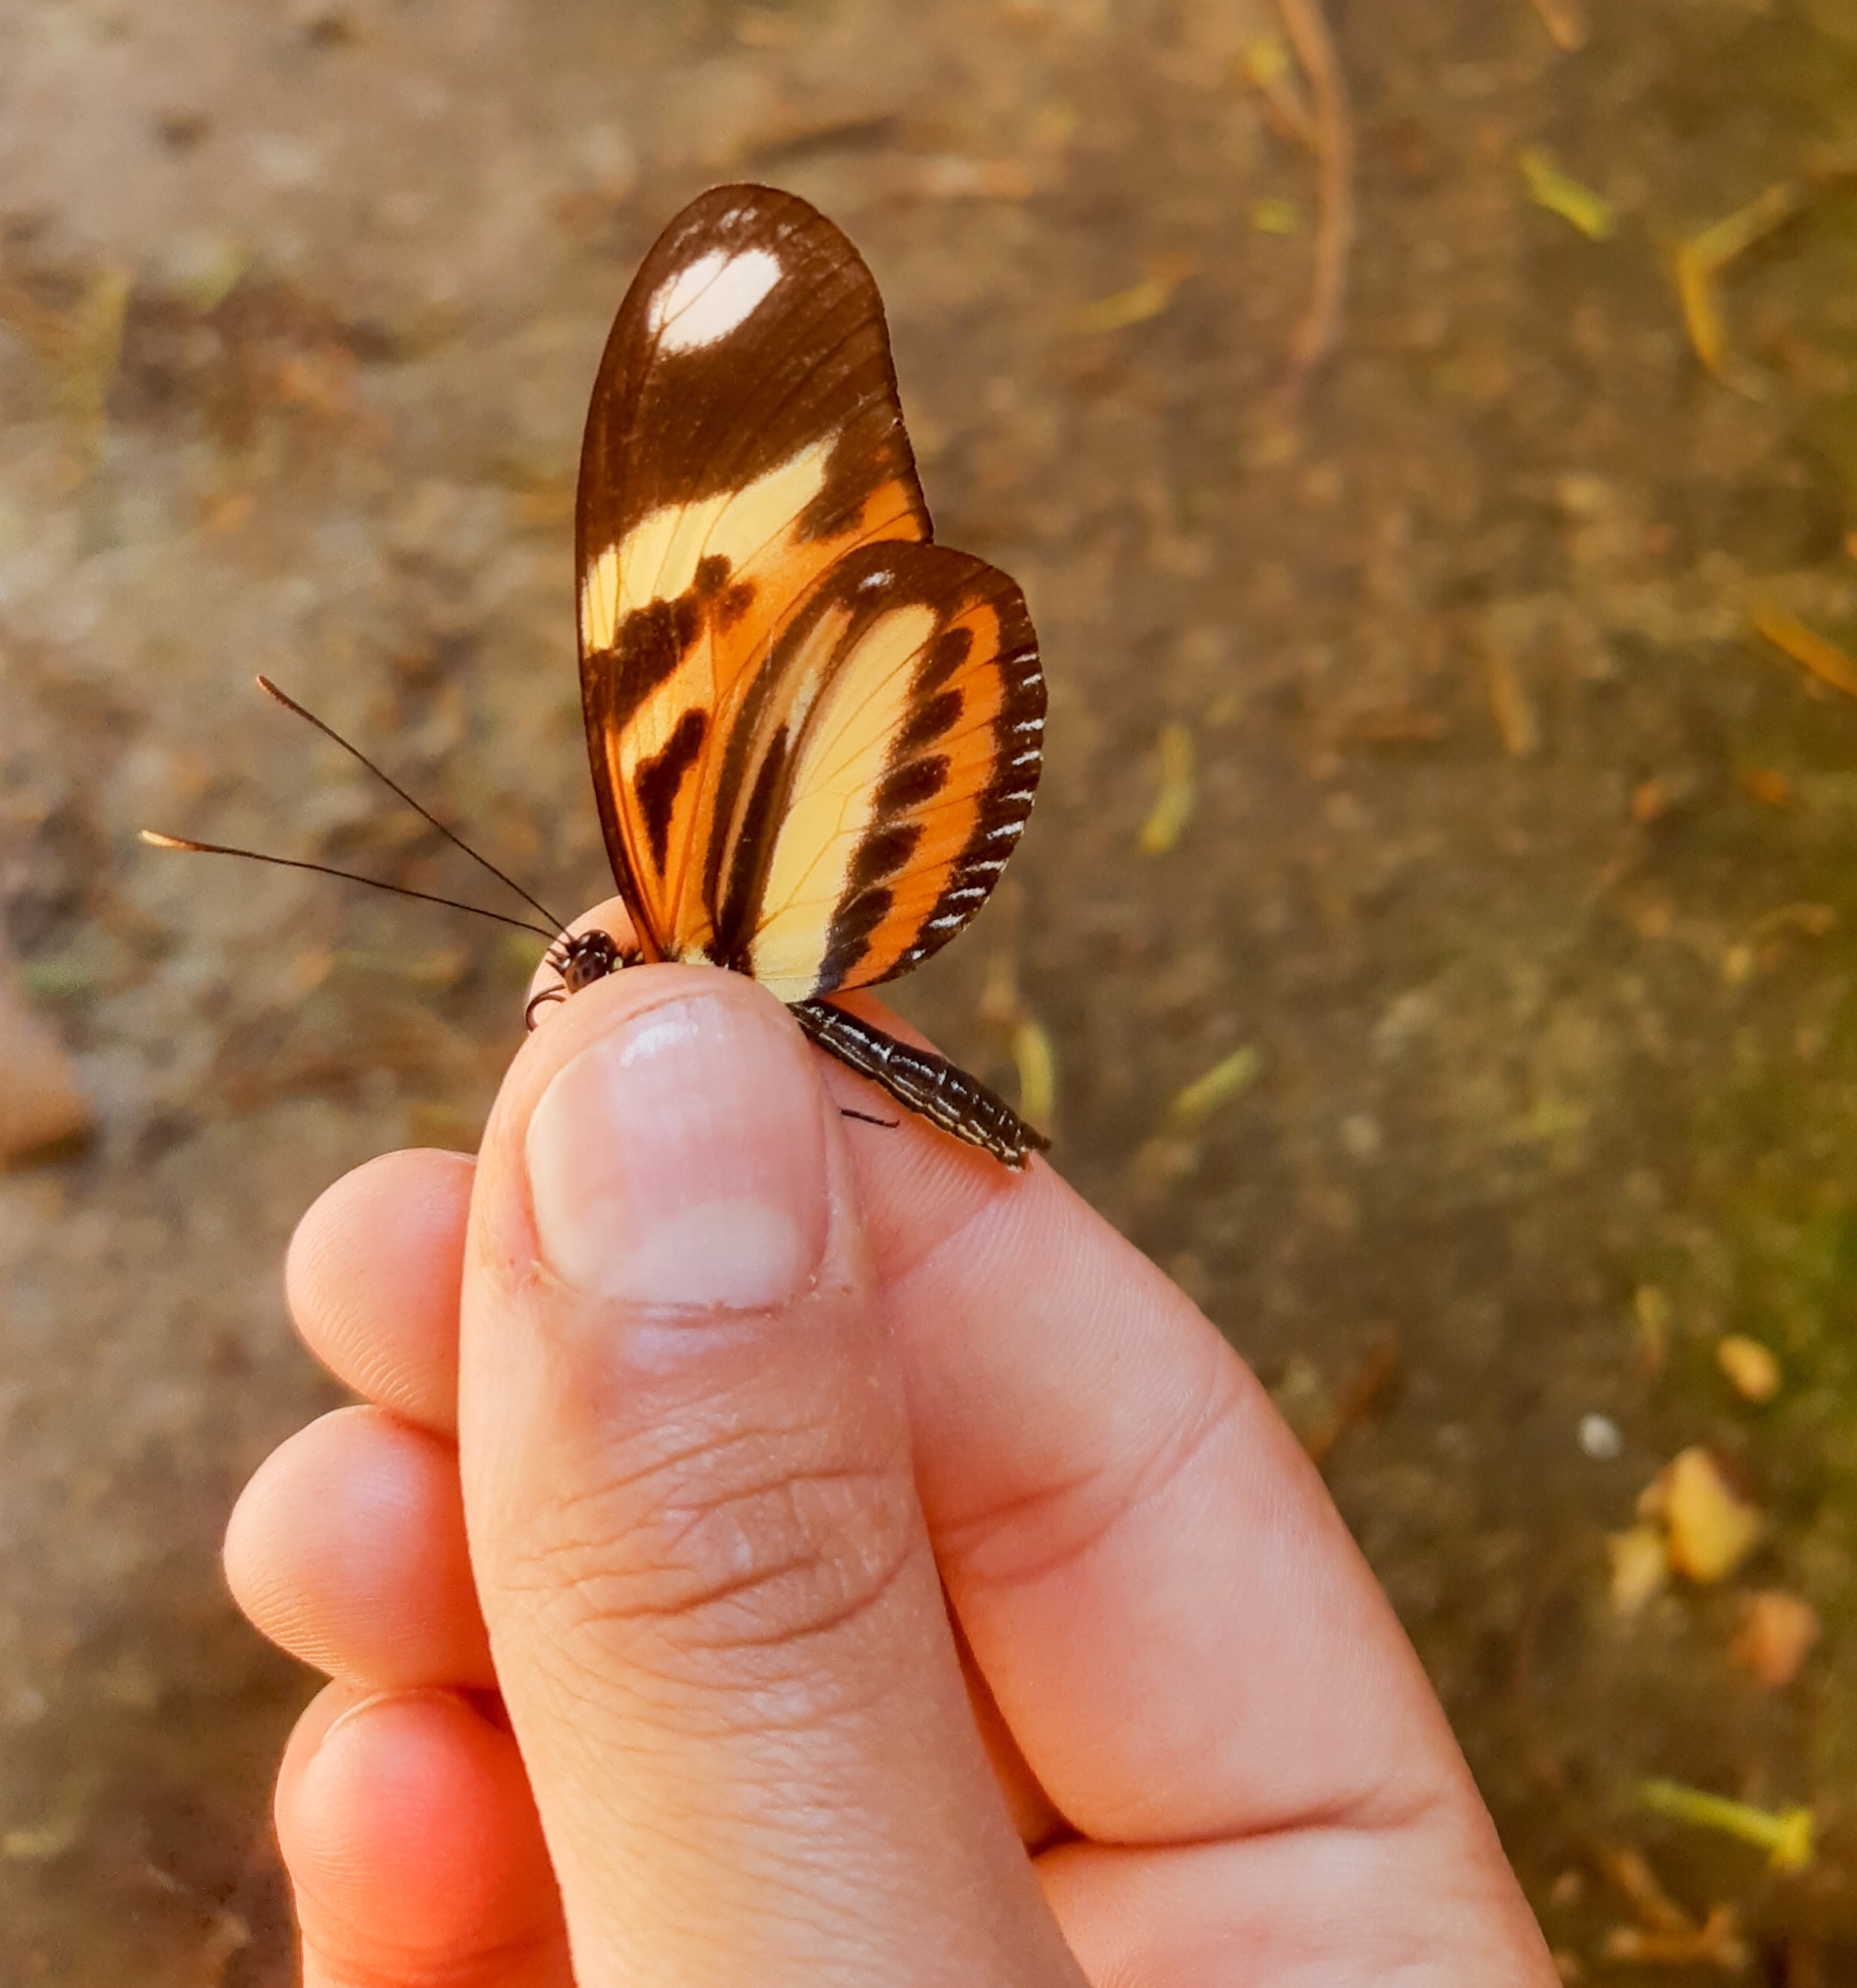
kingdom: Animalia
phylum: Arthropoda
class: Insecta
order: Lepidoptera
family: Nymphalidae
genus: Heliconius
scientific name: Heliconius ethilla
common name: Ethilia longwing
